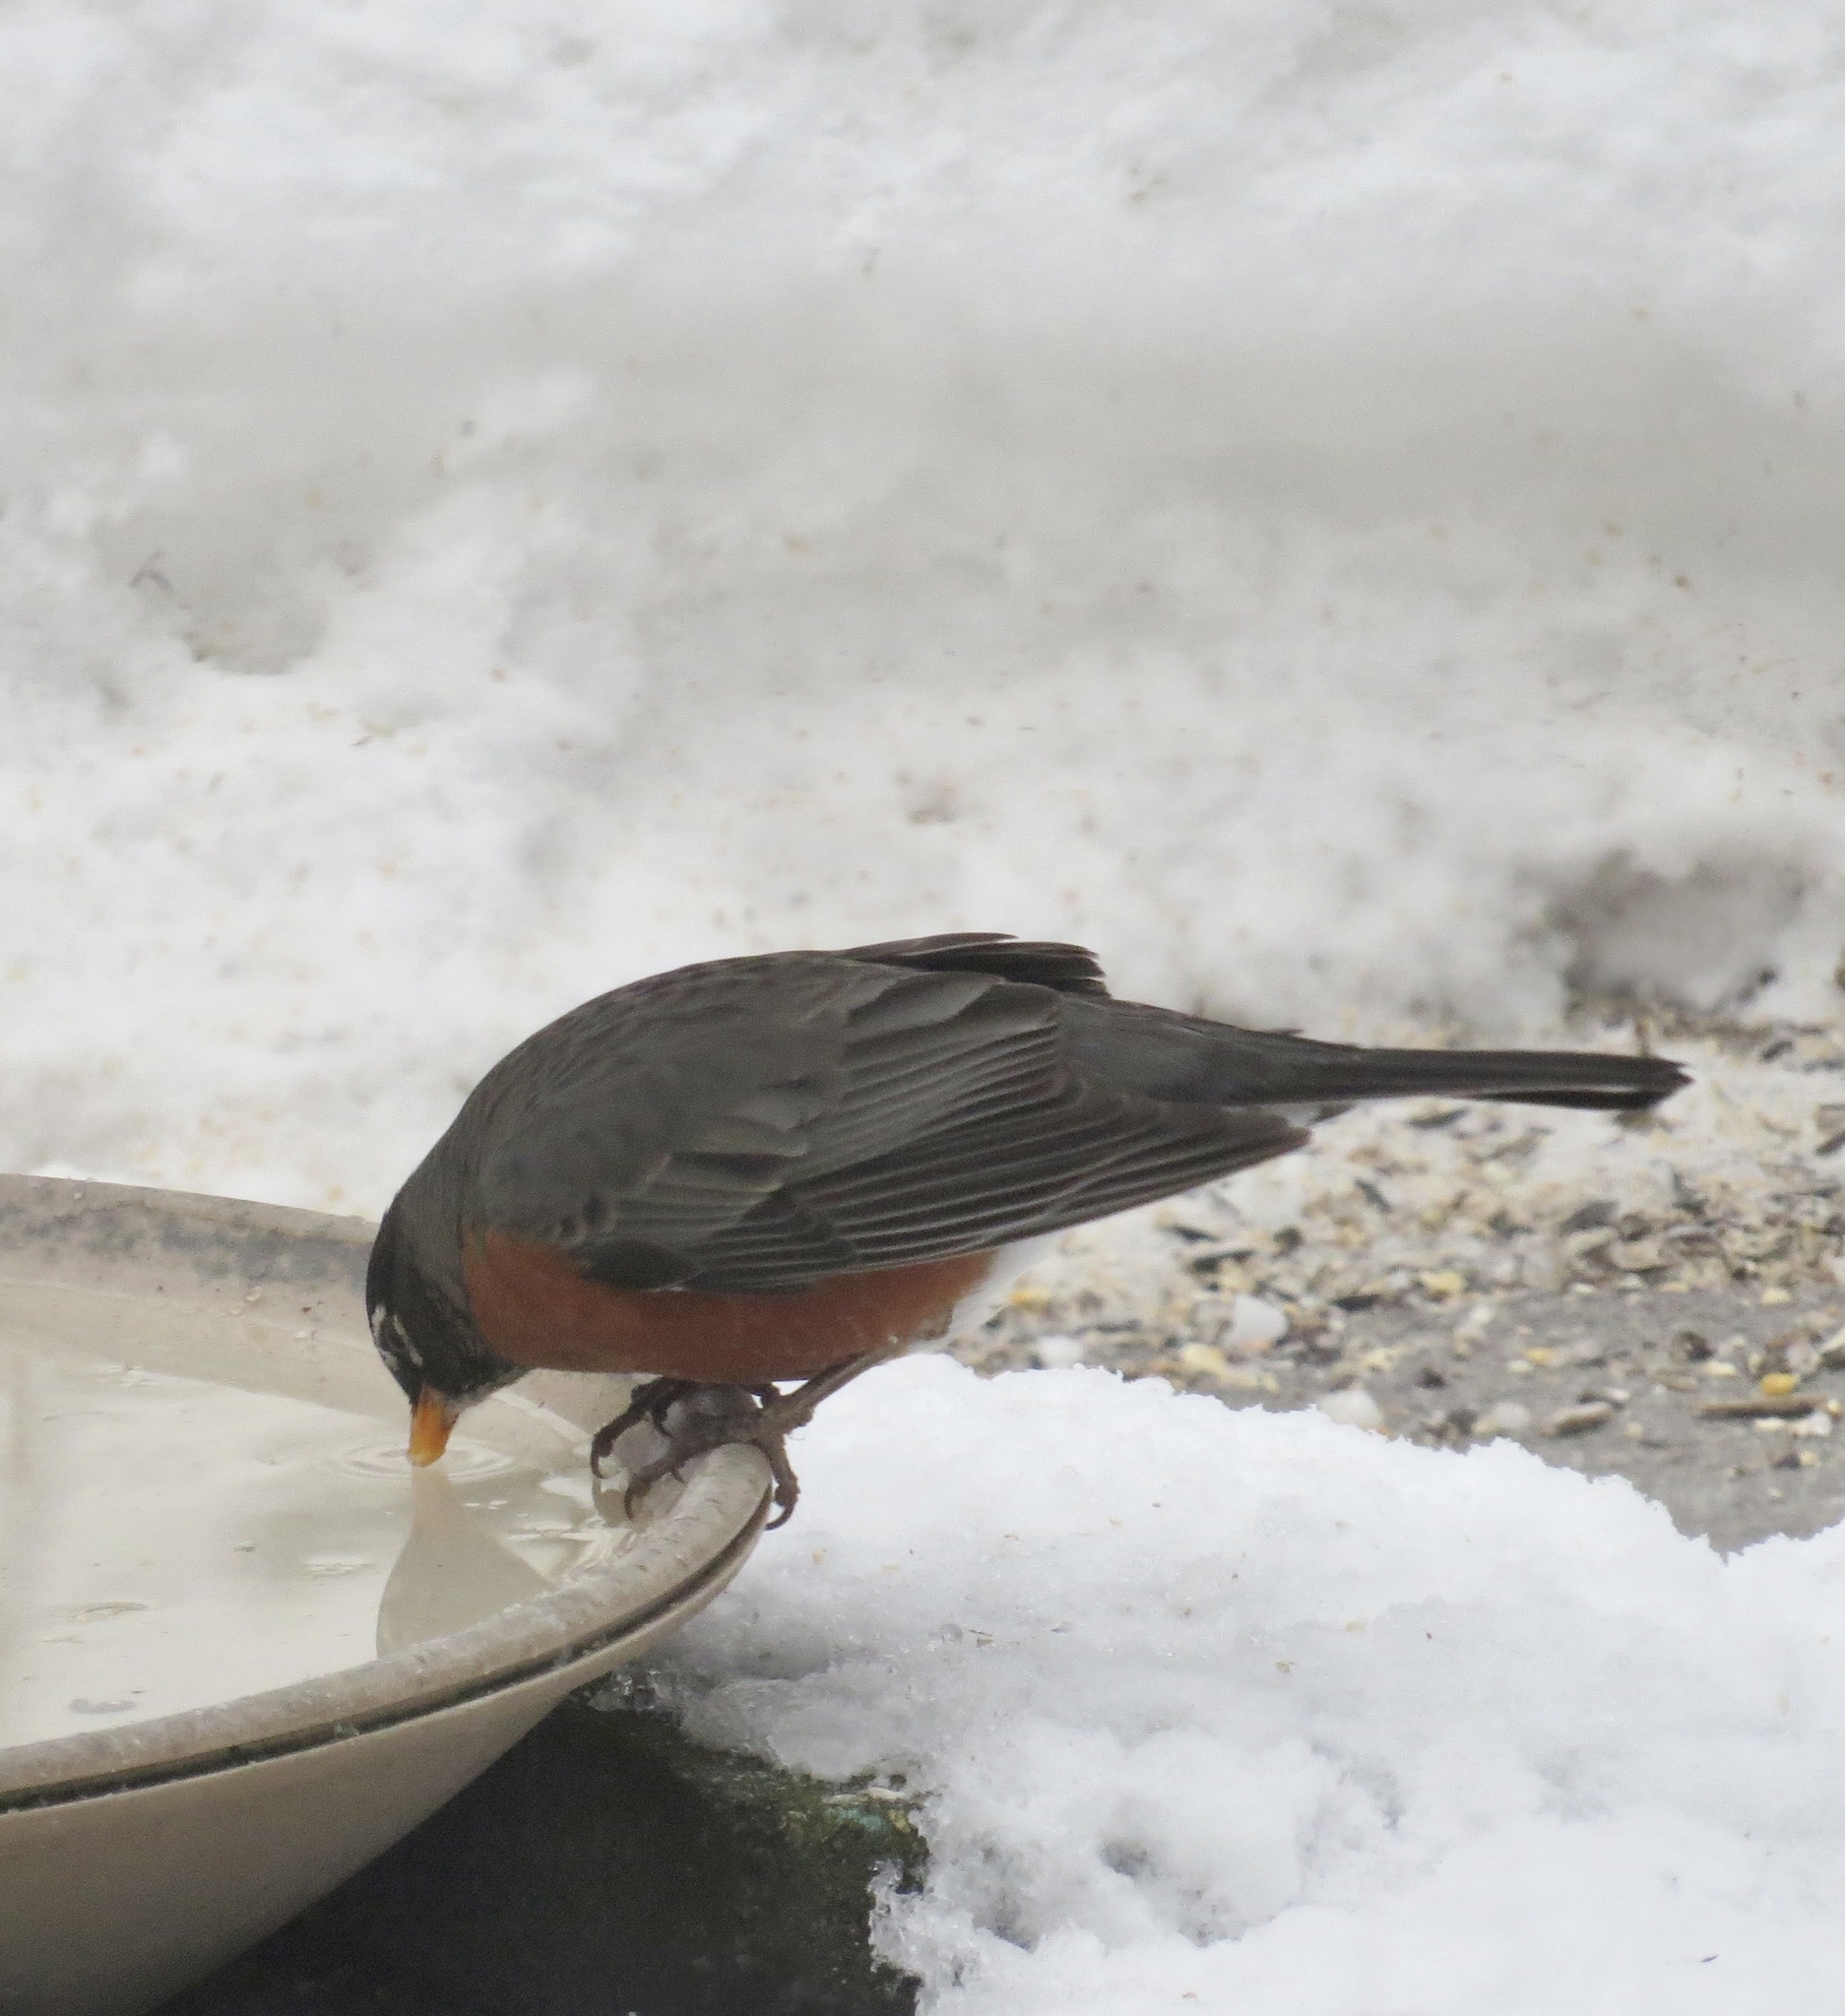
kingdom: Animalia
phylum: Chordata
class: Aves
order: Passeriformes
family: Turdidae
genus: Turdus
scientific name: Turdus migratorius
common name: American robin
